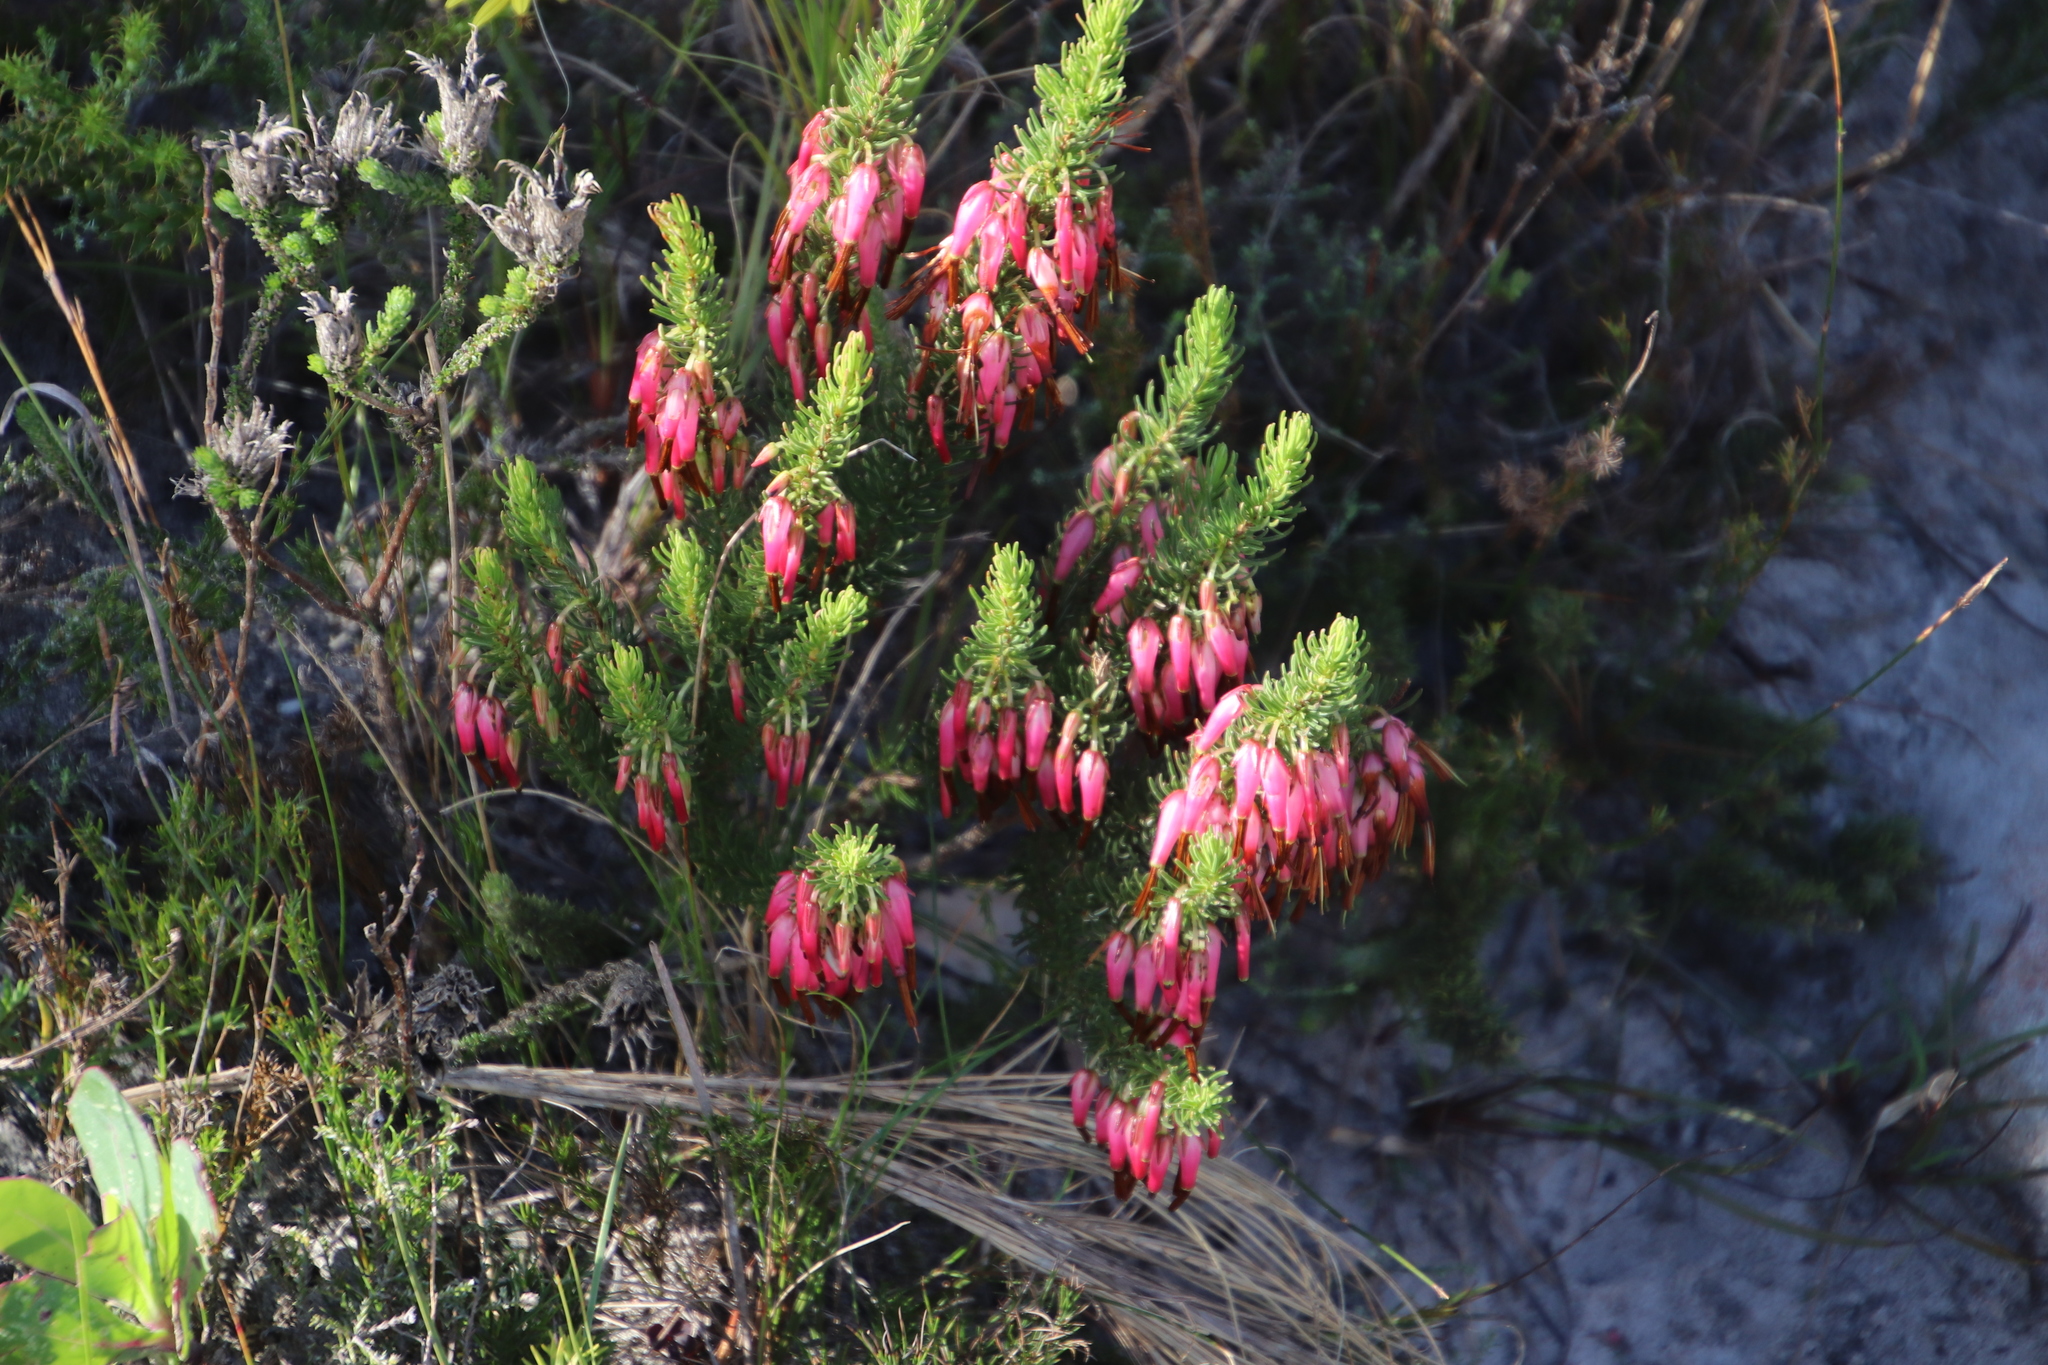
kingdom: Plantae
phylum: Tracheophyta
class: Magnoliopsida
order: Ericales
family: Ericaceae
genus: Erica
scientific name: Erica plukenetii
